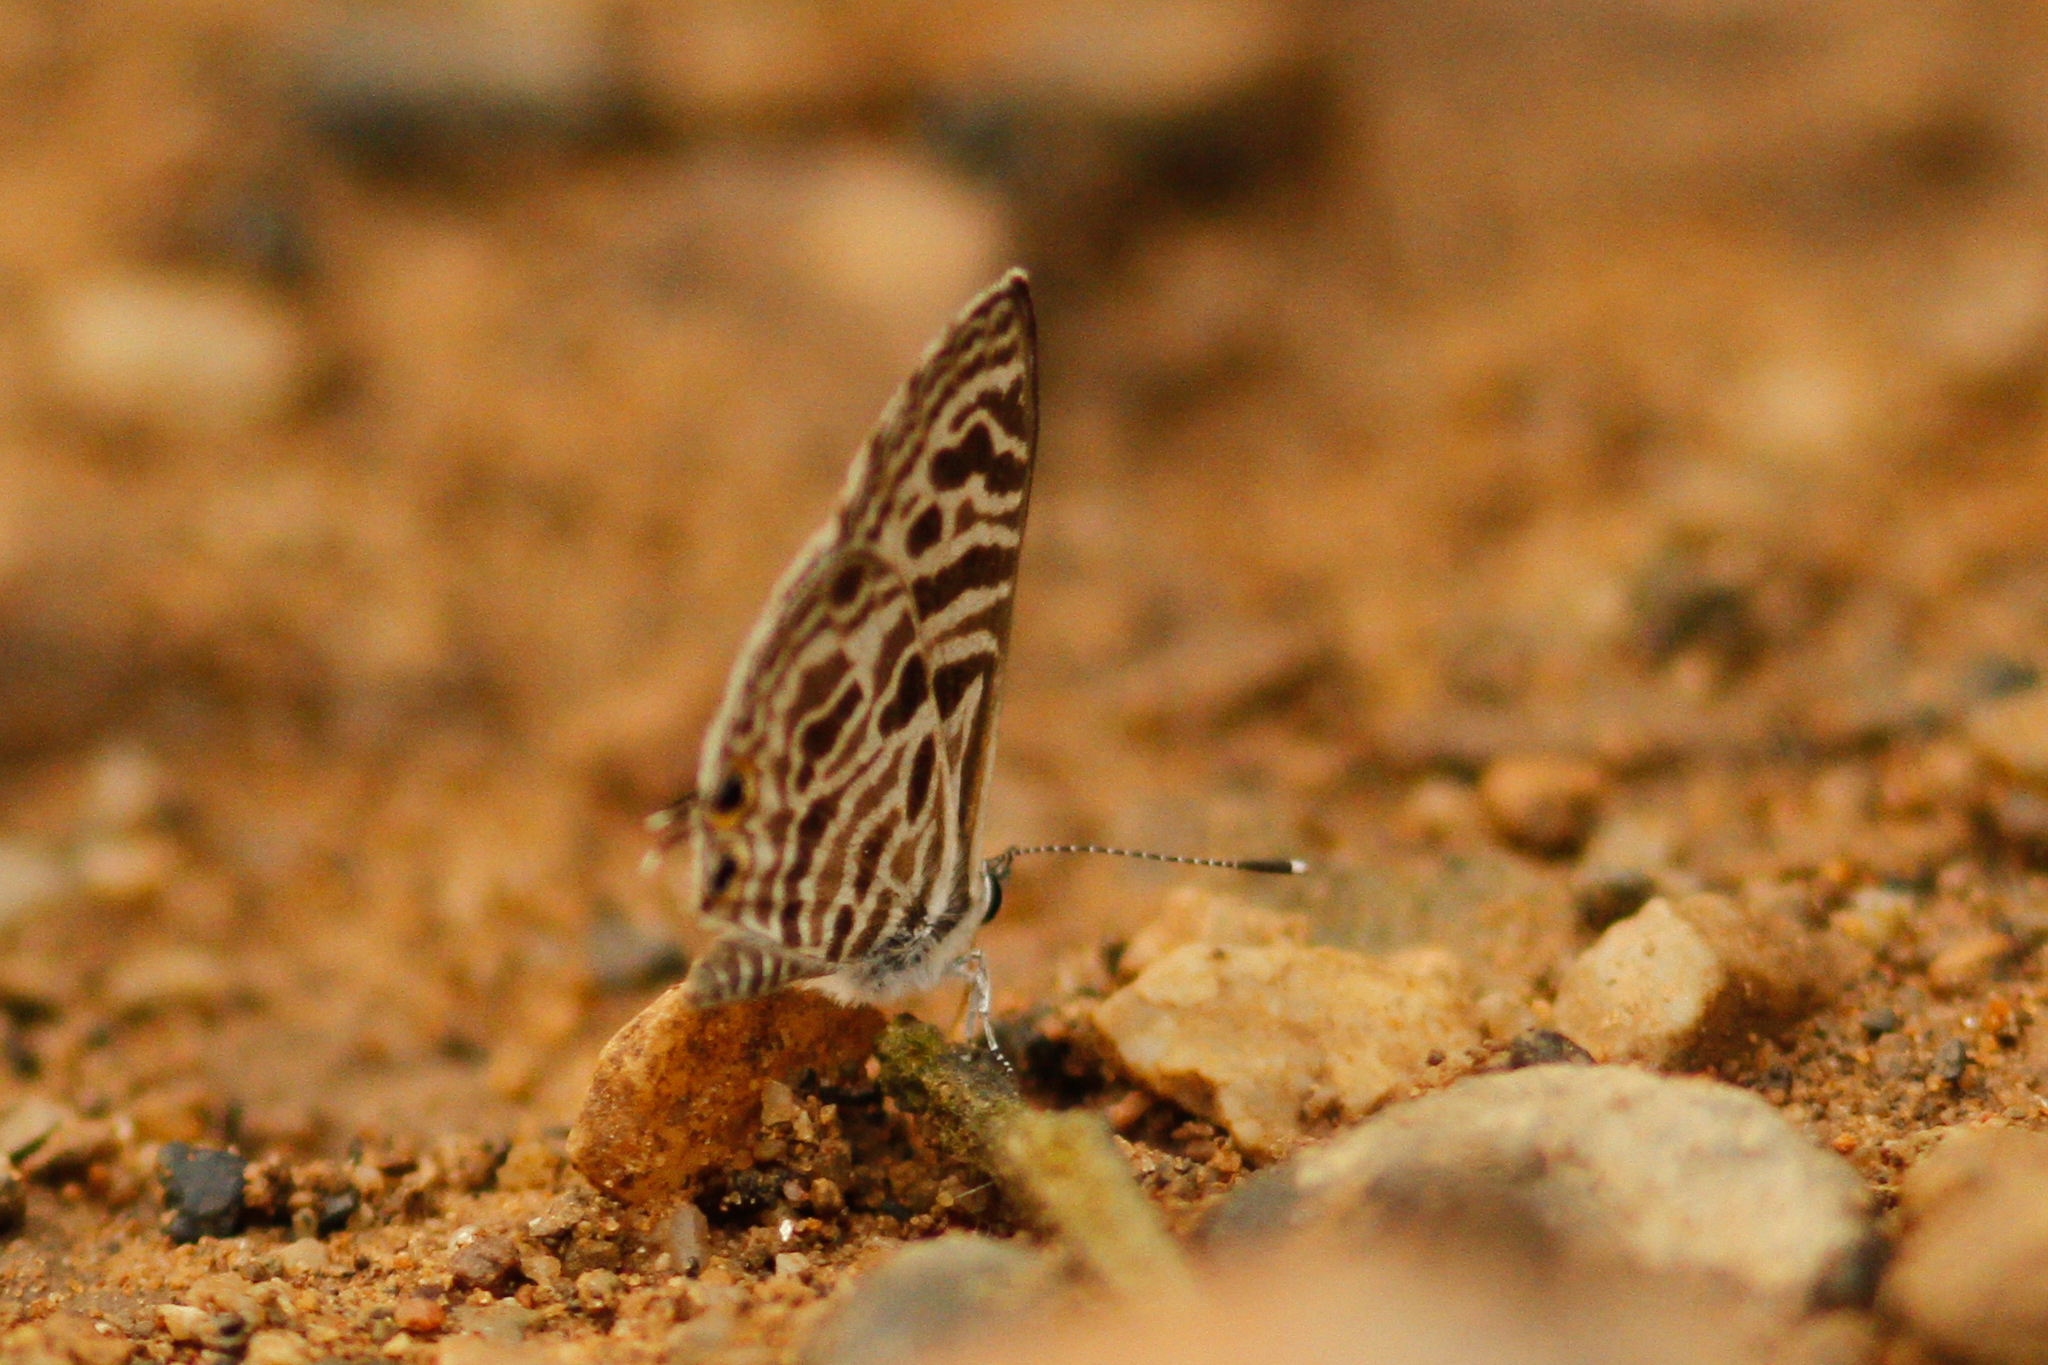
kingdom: Animalia
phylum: Arthropoda
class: Insecta
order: Lepidoptera
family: Lycaenidae
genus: Leptotes
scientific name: Leptotes plinius
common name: Zebra blue
